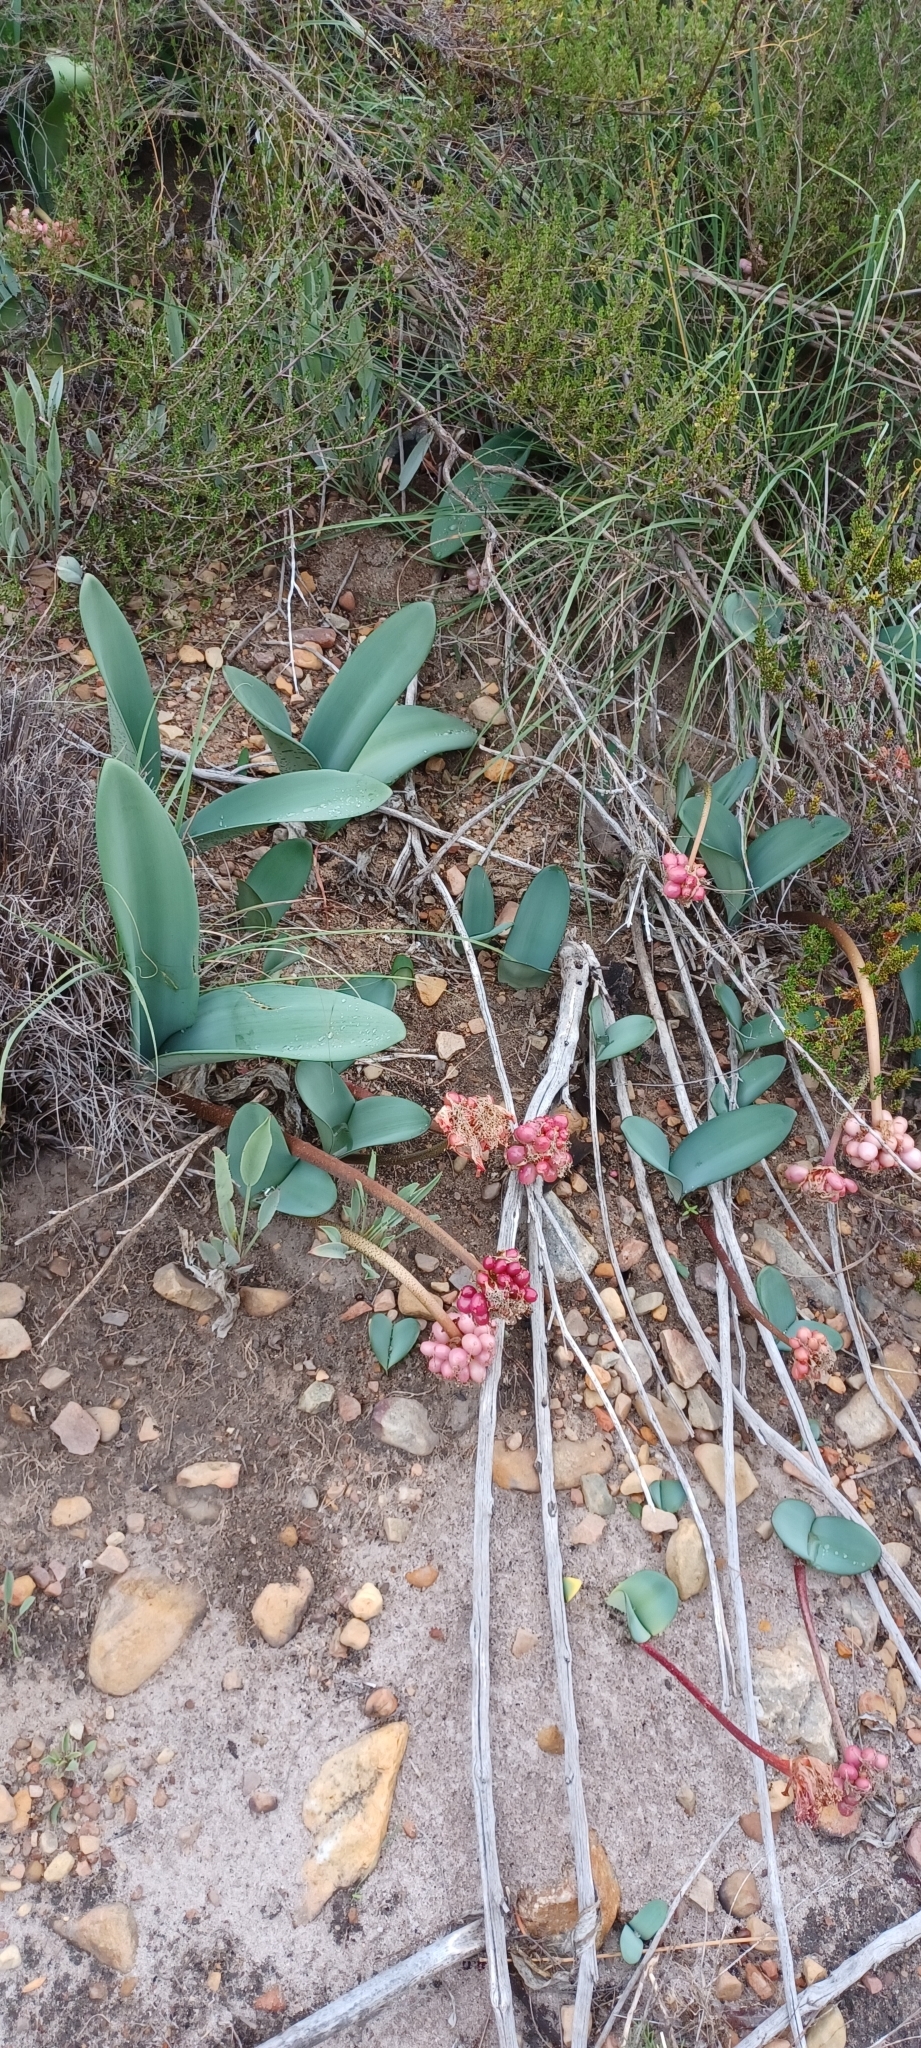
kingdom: Plantae
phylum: Tracheophyta
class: Liliopsida
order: Asparagales
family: Amaryllidaceae
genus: Haemanthus
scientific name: Haemanthus coccineus
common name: Cape-tulip
